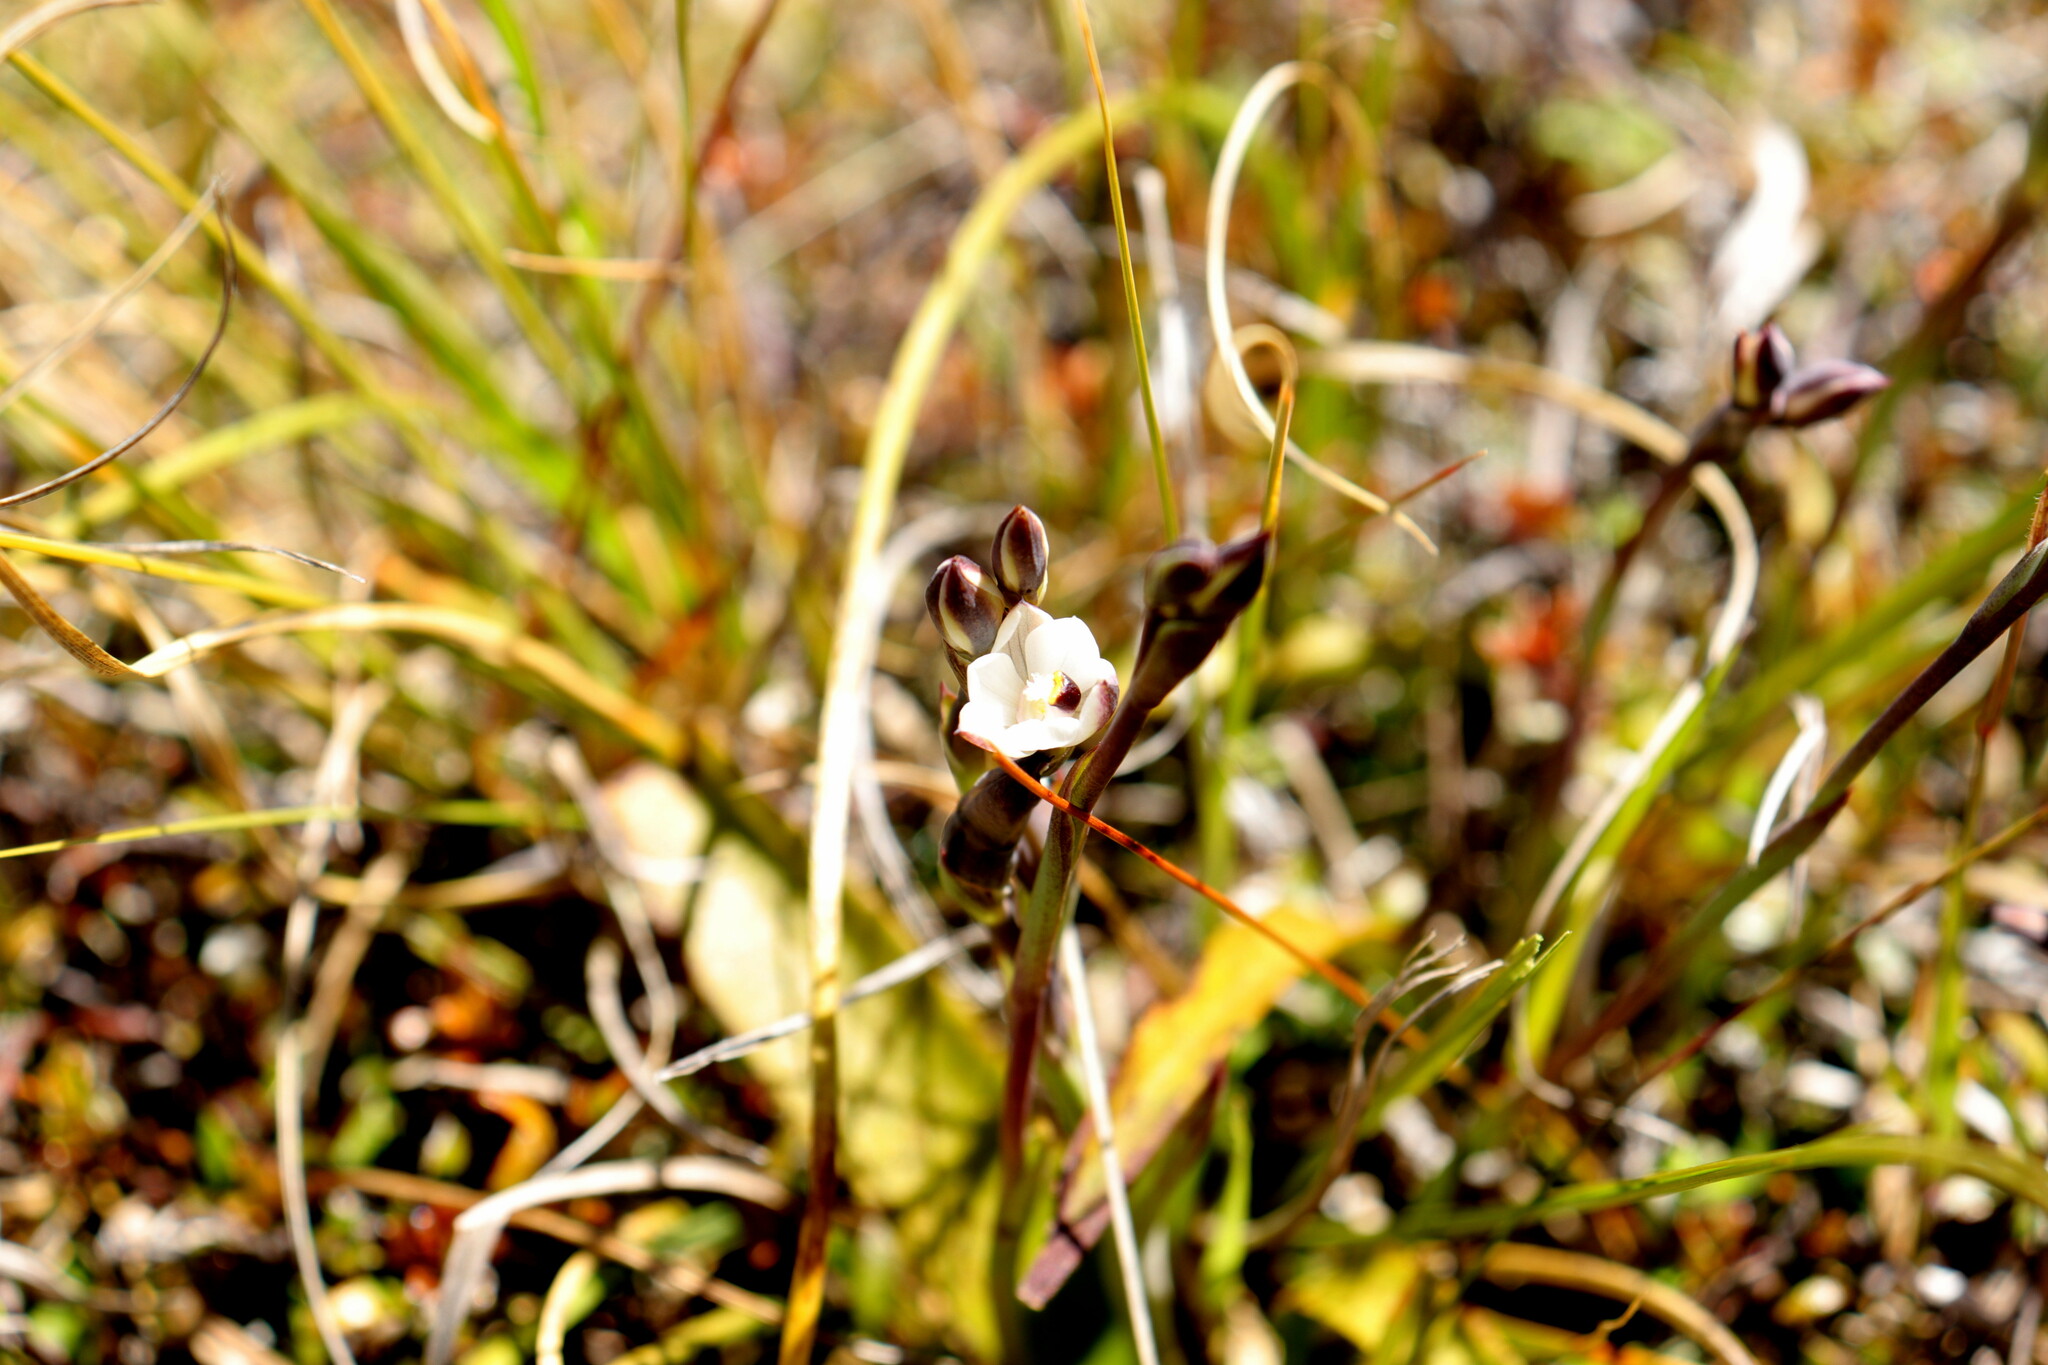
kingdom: Plantae
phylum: Tracheophyta
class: Liliopsida
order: Asparagales
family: Orchidaceae
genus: Thelymitra
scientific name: Thelymitra longifolia
